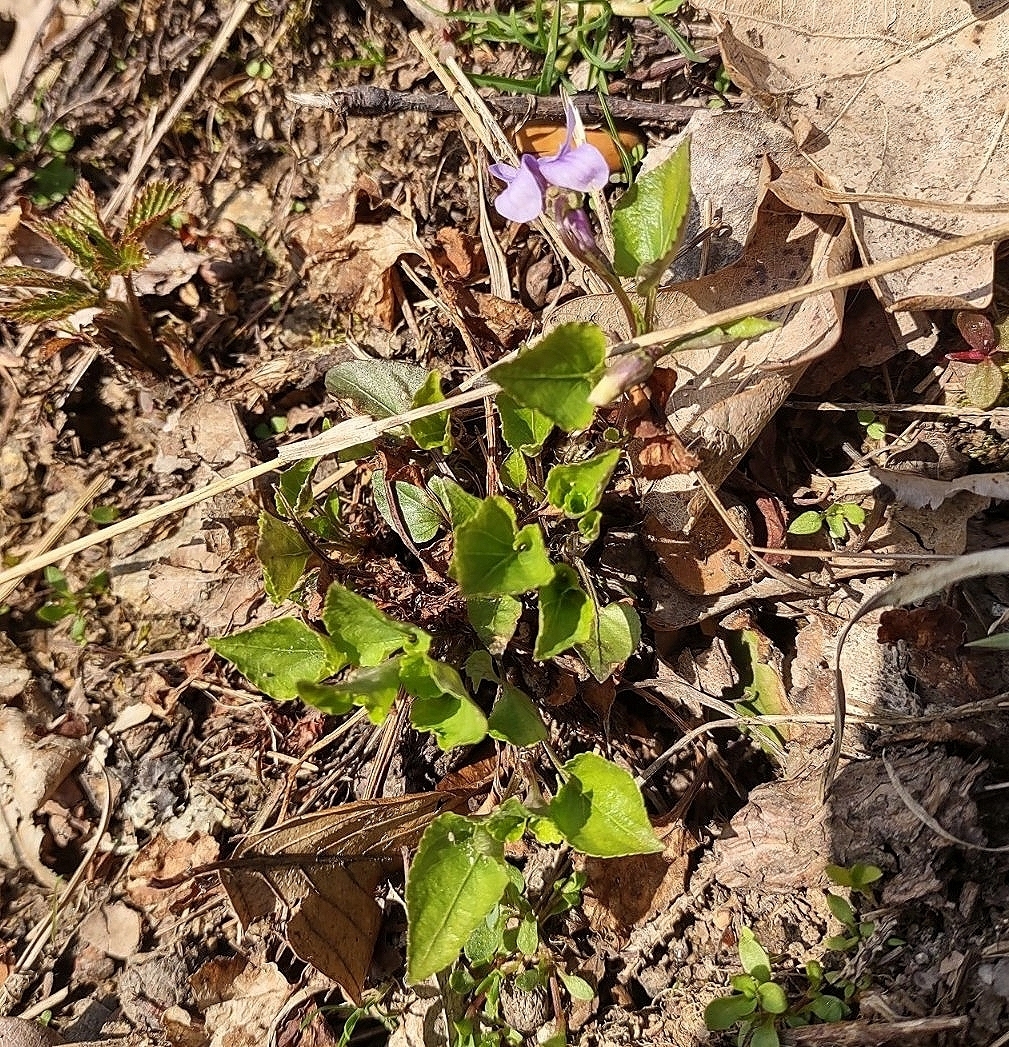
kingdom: Plantae
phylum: Tracheophyta
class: Magnoliopsida
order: Malpighiales
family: Violaceae
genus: Viola
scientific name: Viola reichenbachiana
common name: Early dog-violet
